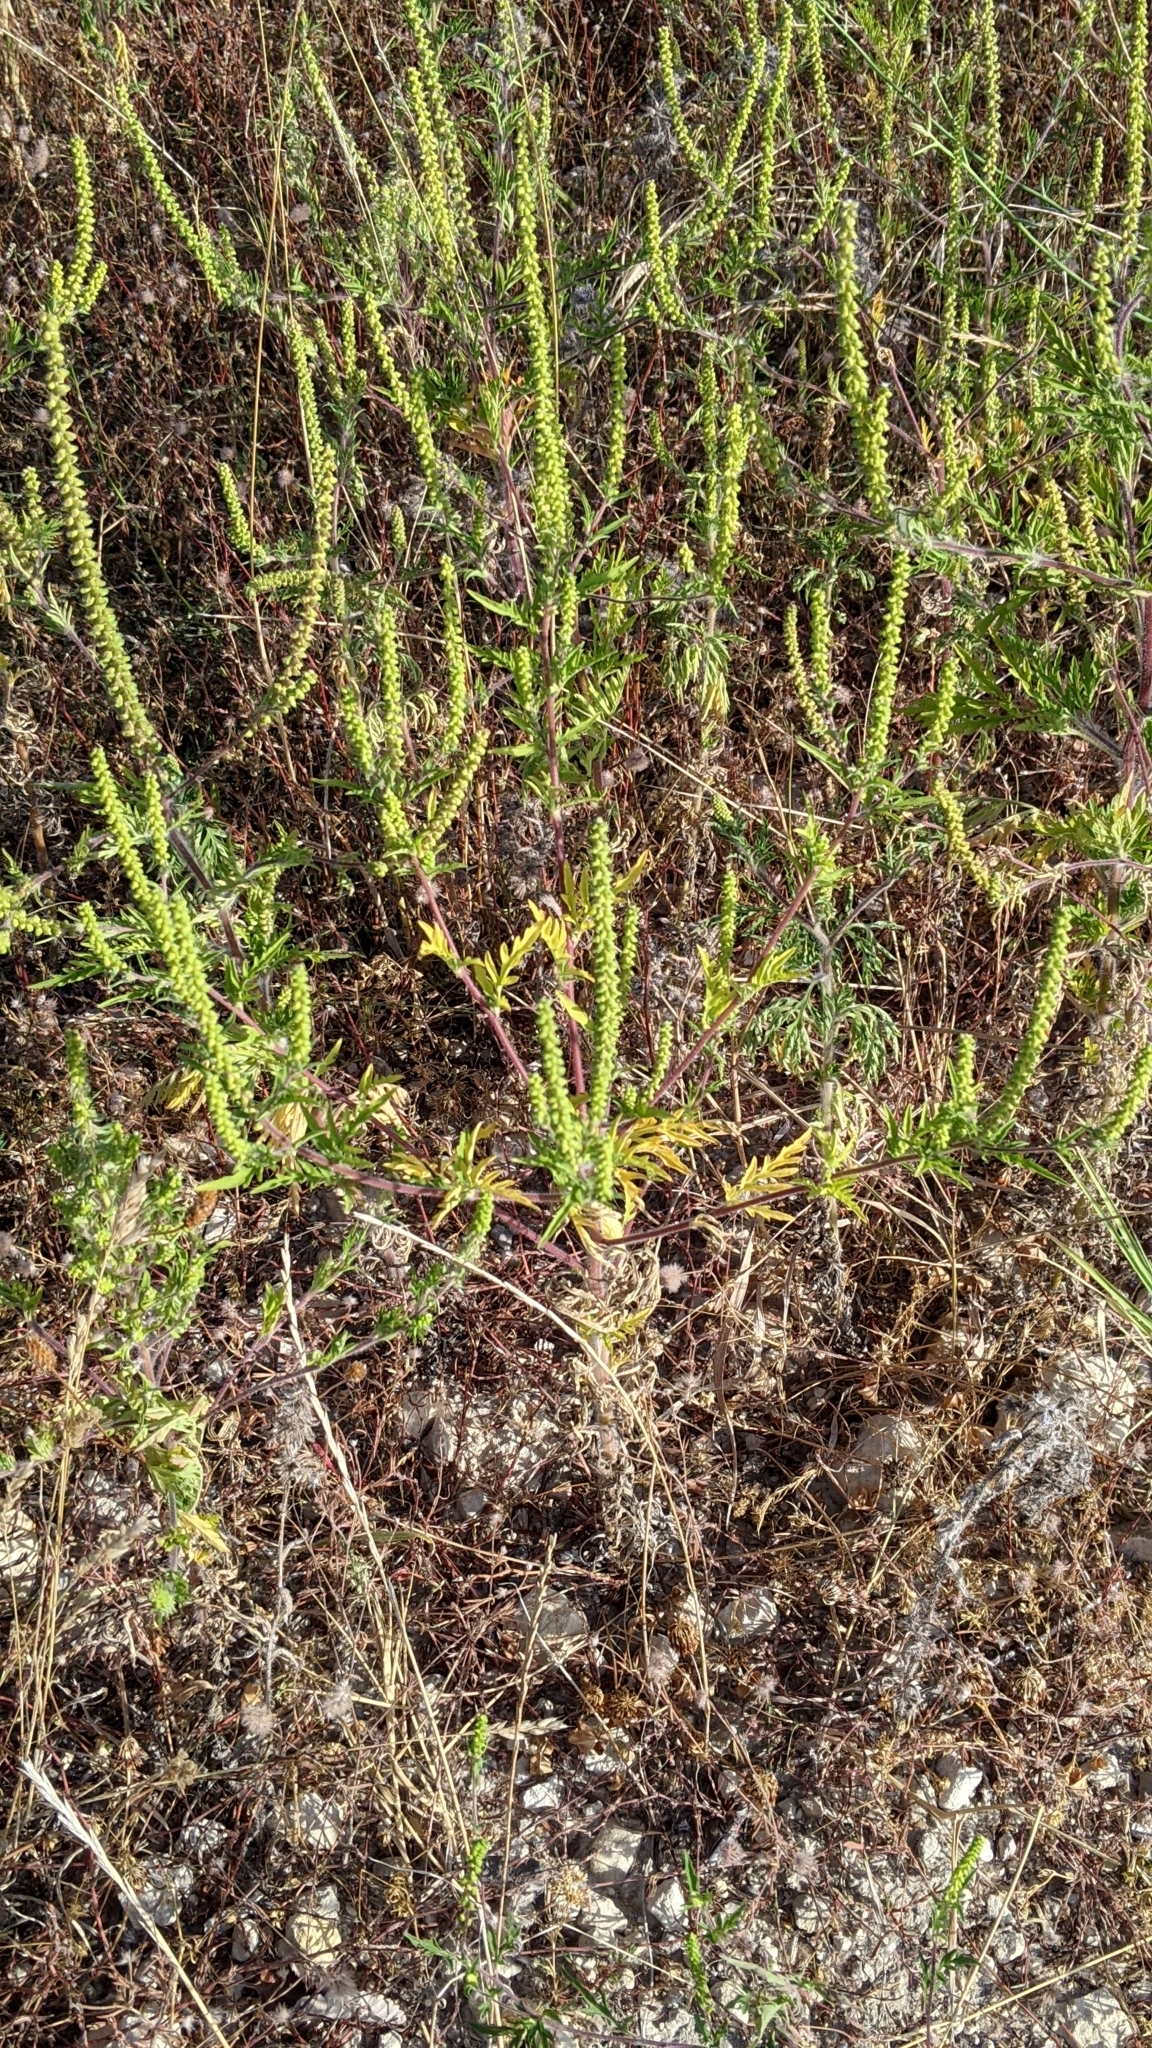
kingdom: Plantae
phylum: Tracheophyta
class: Magnoliopsida
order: Asterales
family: Asteraceae
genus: Ambrosia
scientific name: Ambrosia artemisiifolia
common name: Annual ragweed
